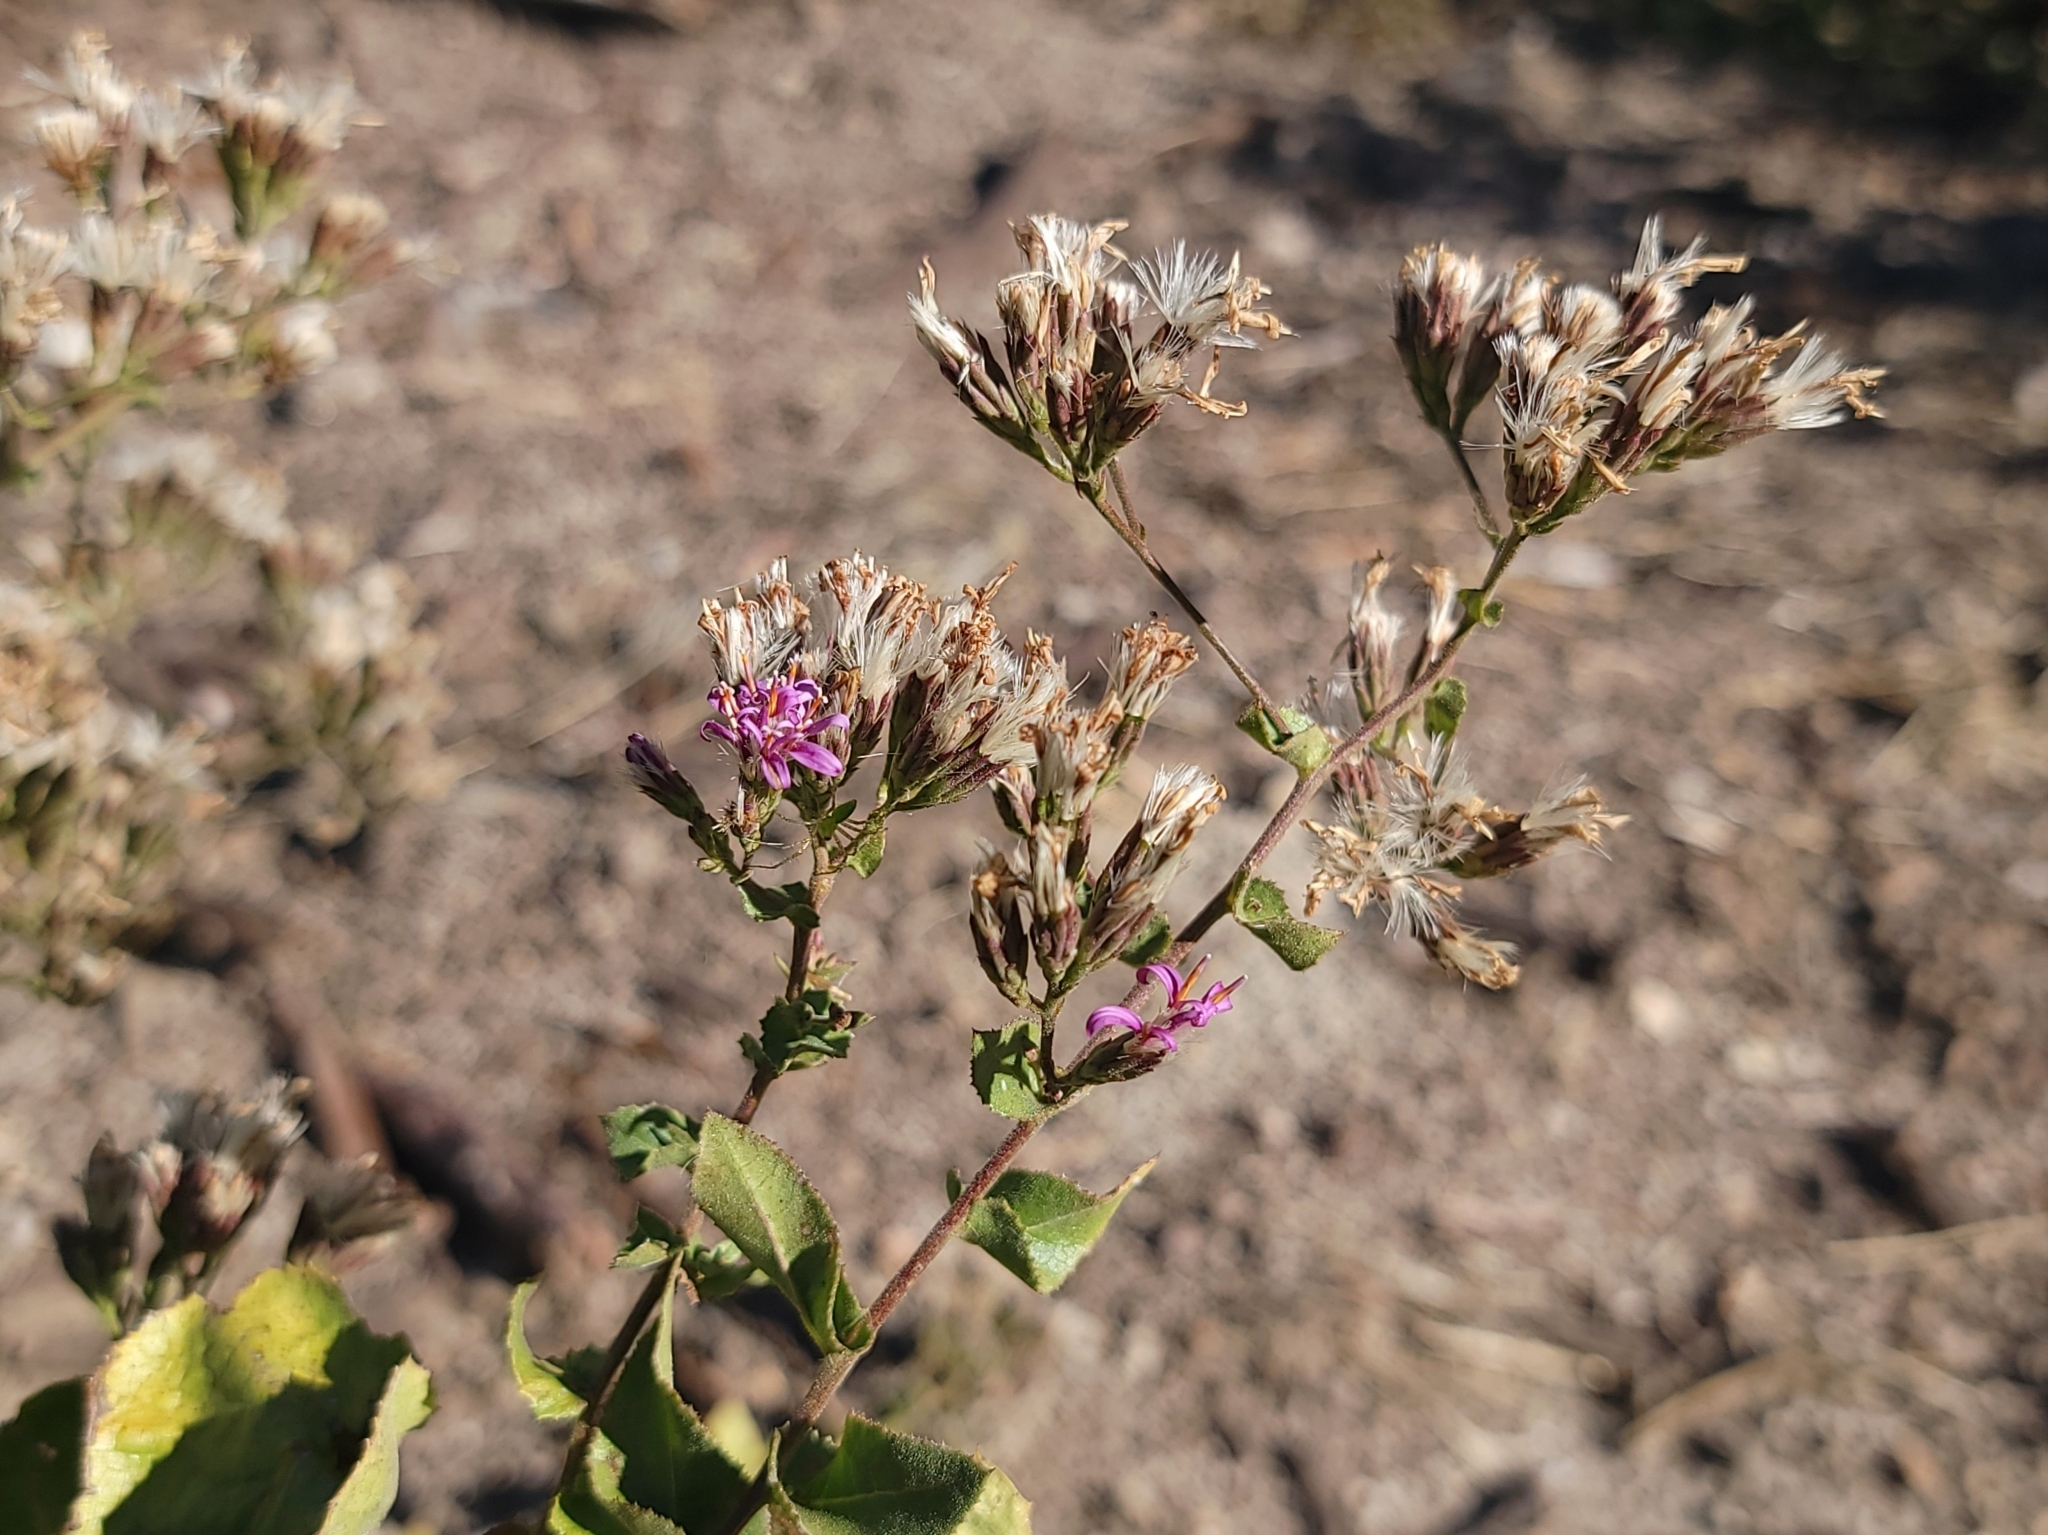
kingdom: Plantae
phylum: Tracheophyta
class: Magnoliopsida
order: Asterales
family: Asteraceae
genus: Acourtia
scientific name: Acourtia microcephala
